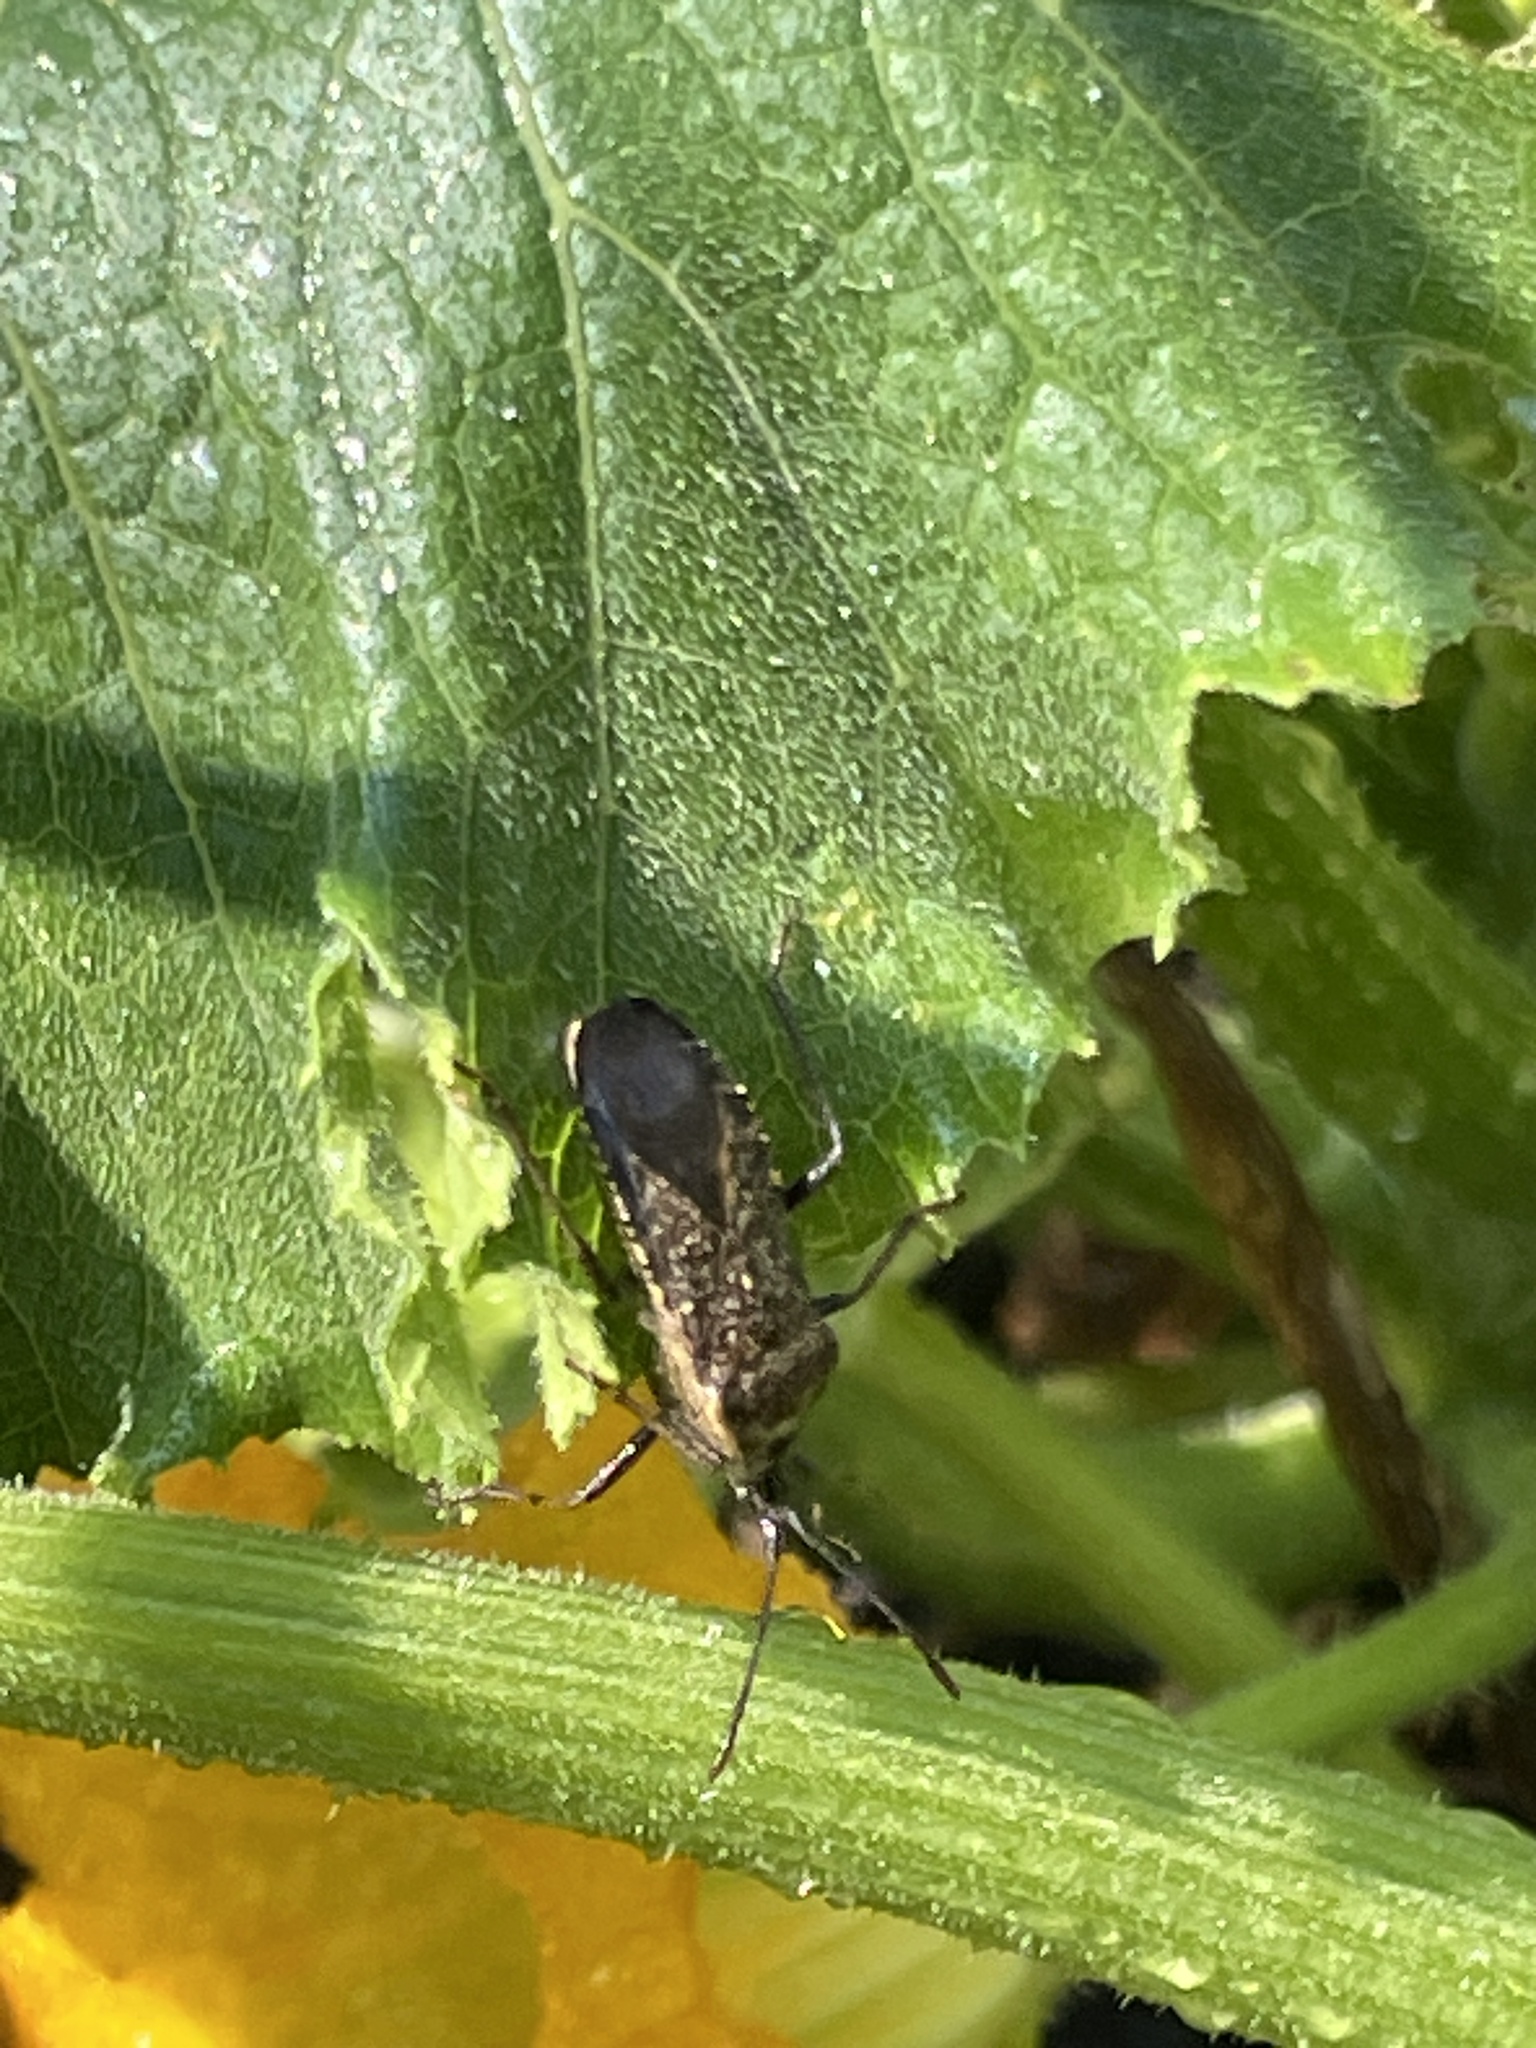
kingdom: Animalia
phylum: Arthropoda
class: Insecta
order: Hemiptera
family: Coreidae
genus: Anasa
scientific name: Anasa tristis
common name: Squash bug
